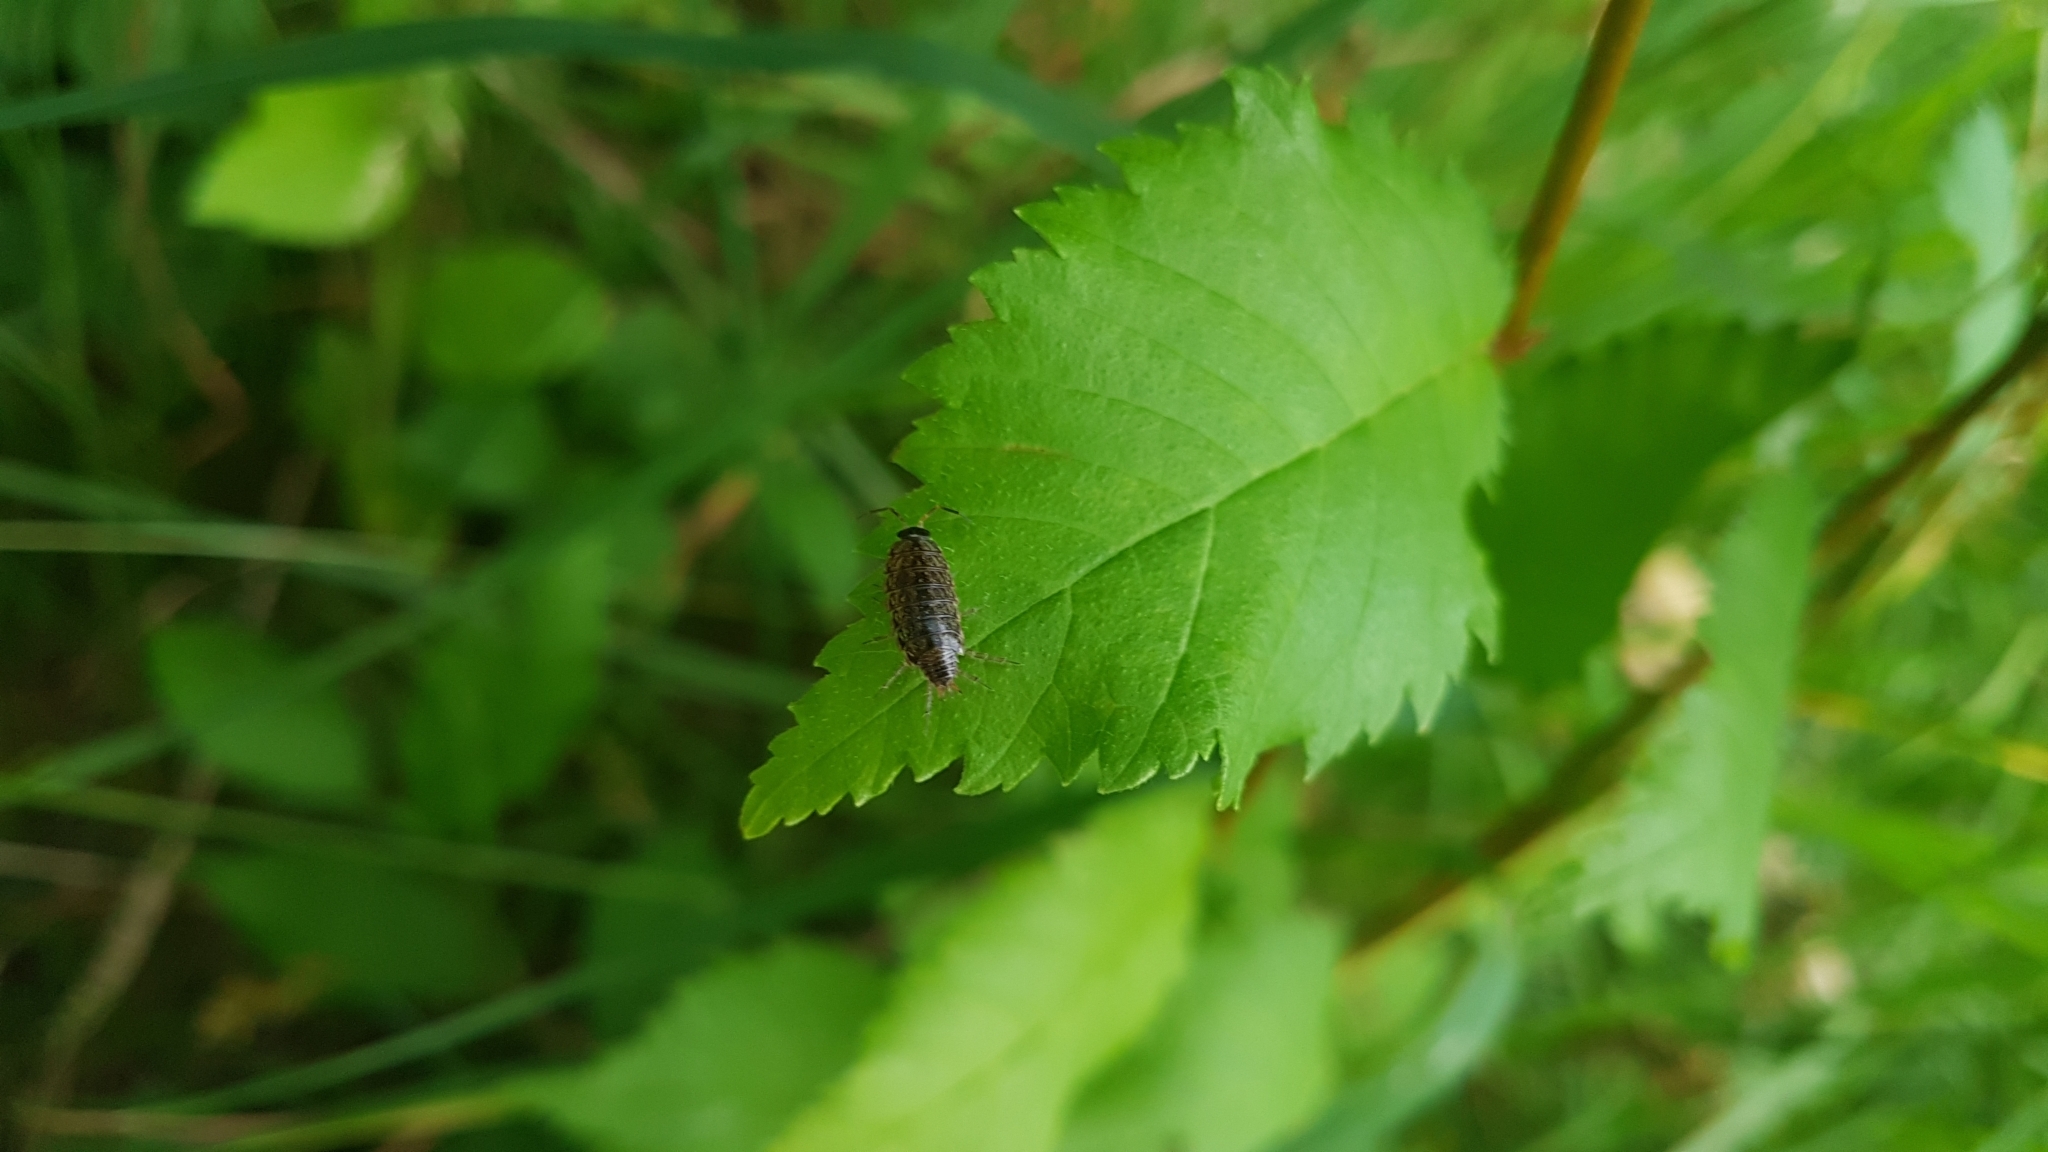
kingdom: Animalia
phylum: Arthropoda
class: Malacostraca
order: Isopoda
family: Philosciidae
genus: Philoscia
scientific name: Philoscia muscorum
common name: Common striped woodlouse
